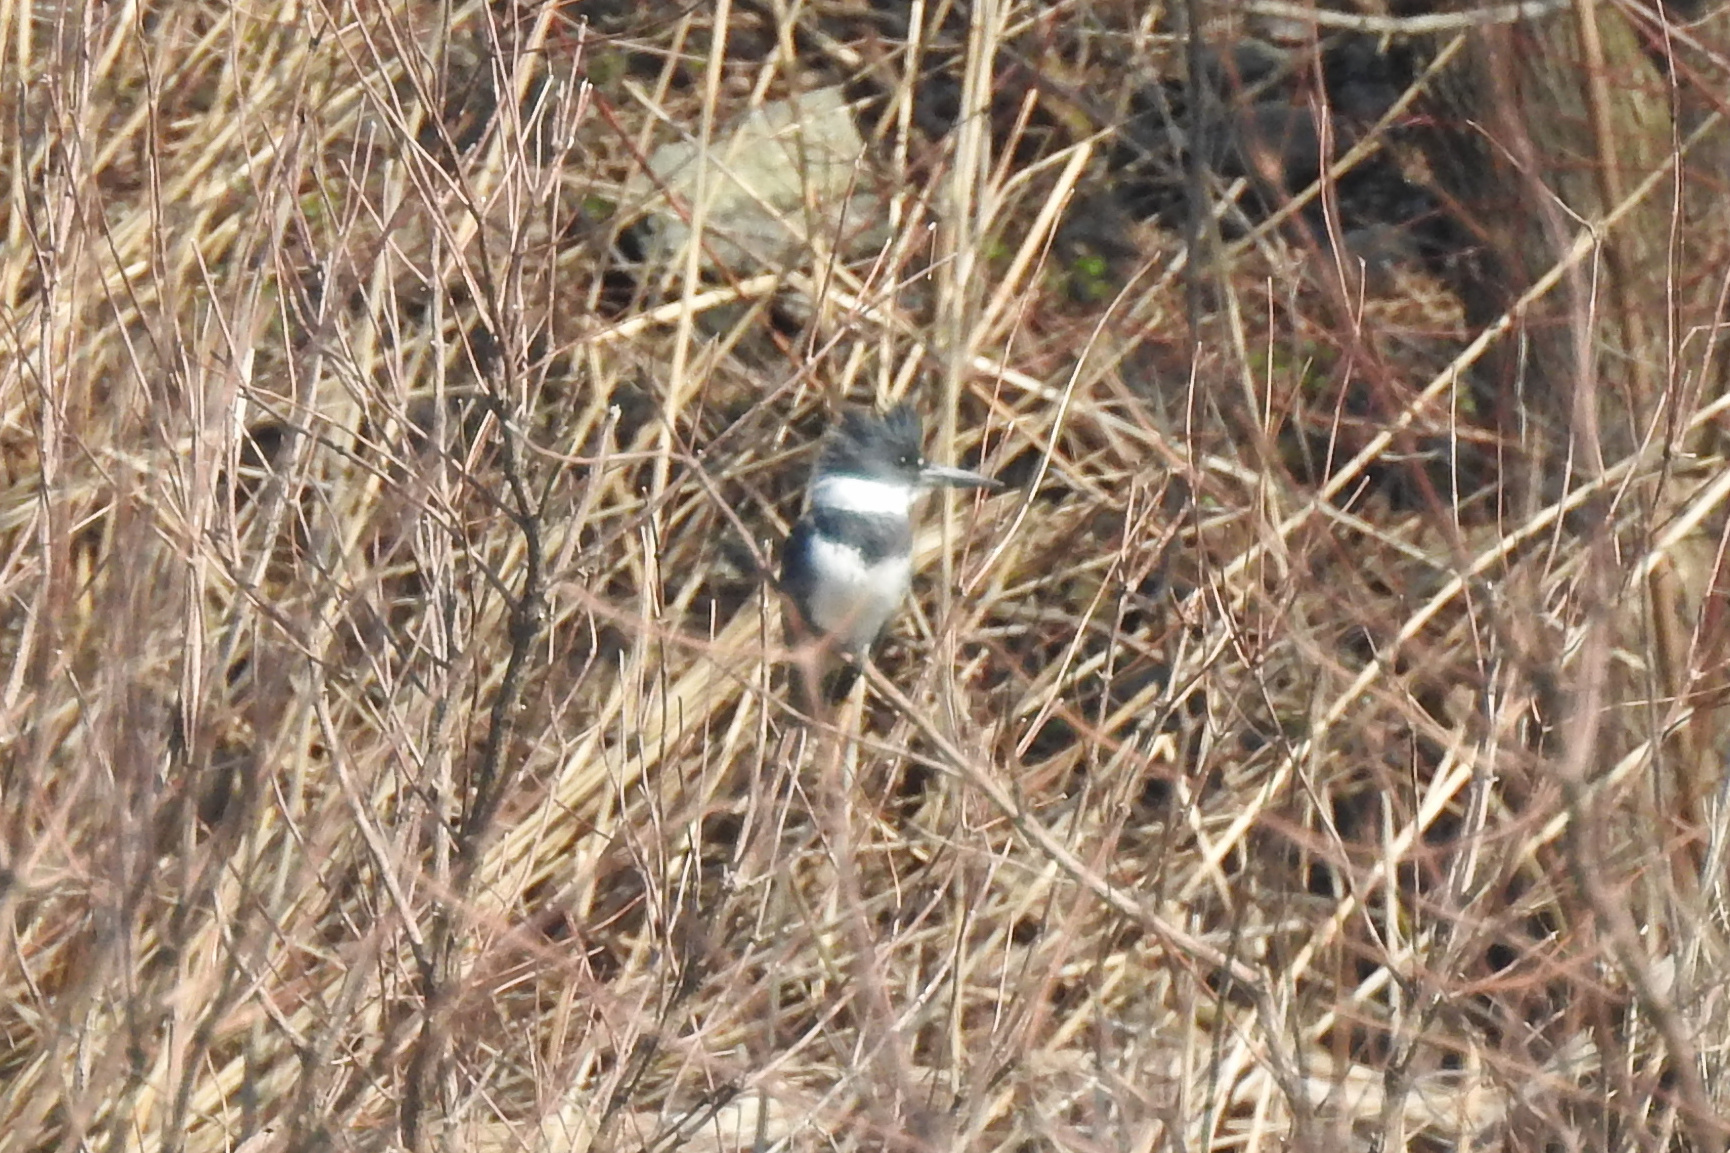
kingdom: Animalia
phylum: Chordata
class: Aves
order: Coraciiformes
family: Alcedinidae
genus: Megaceryle
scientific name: Megaceryle alcyon
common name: Belted kingfisher
